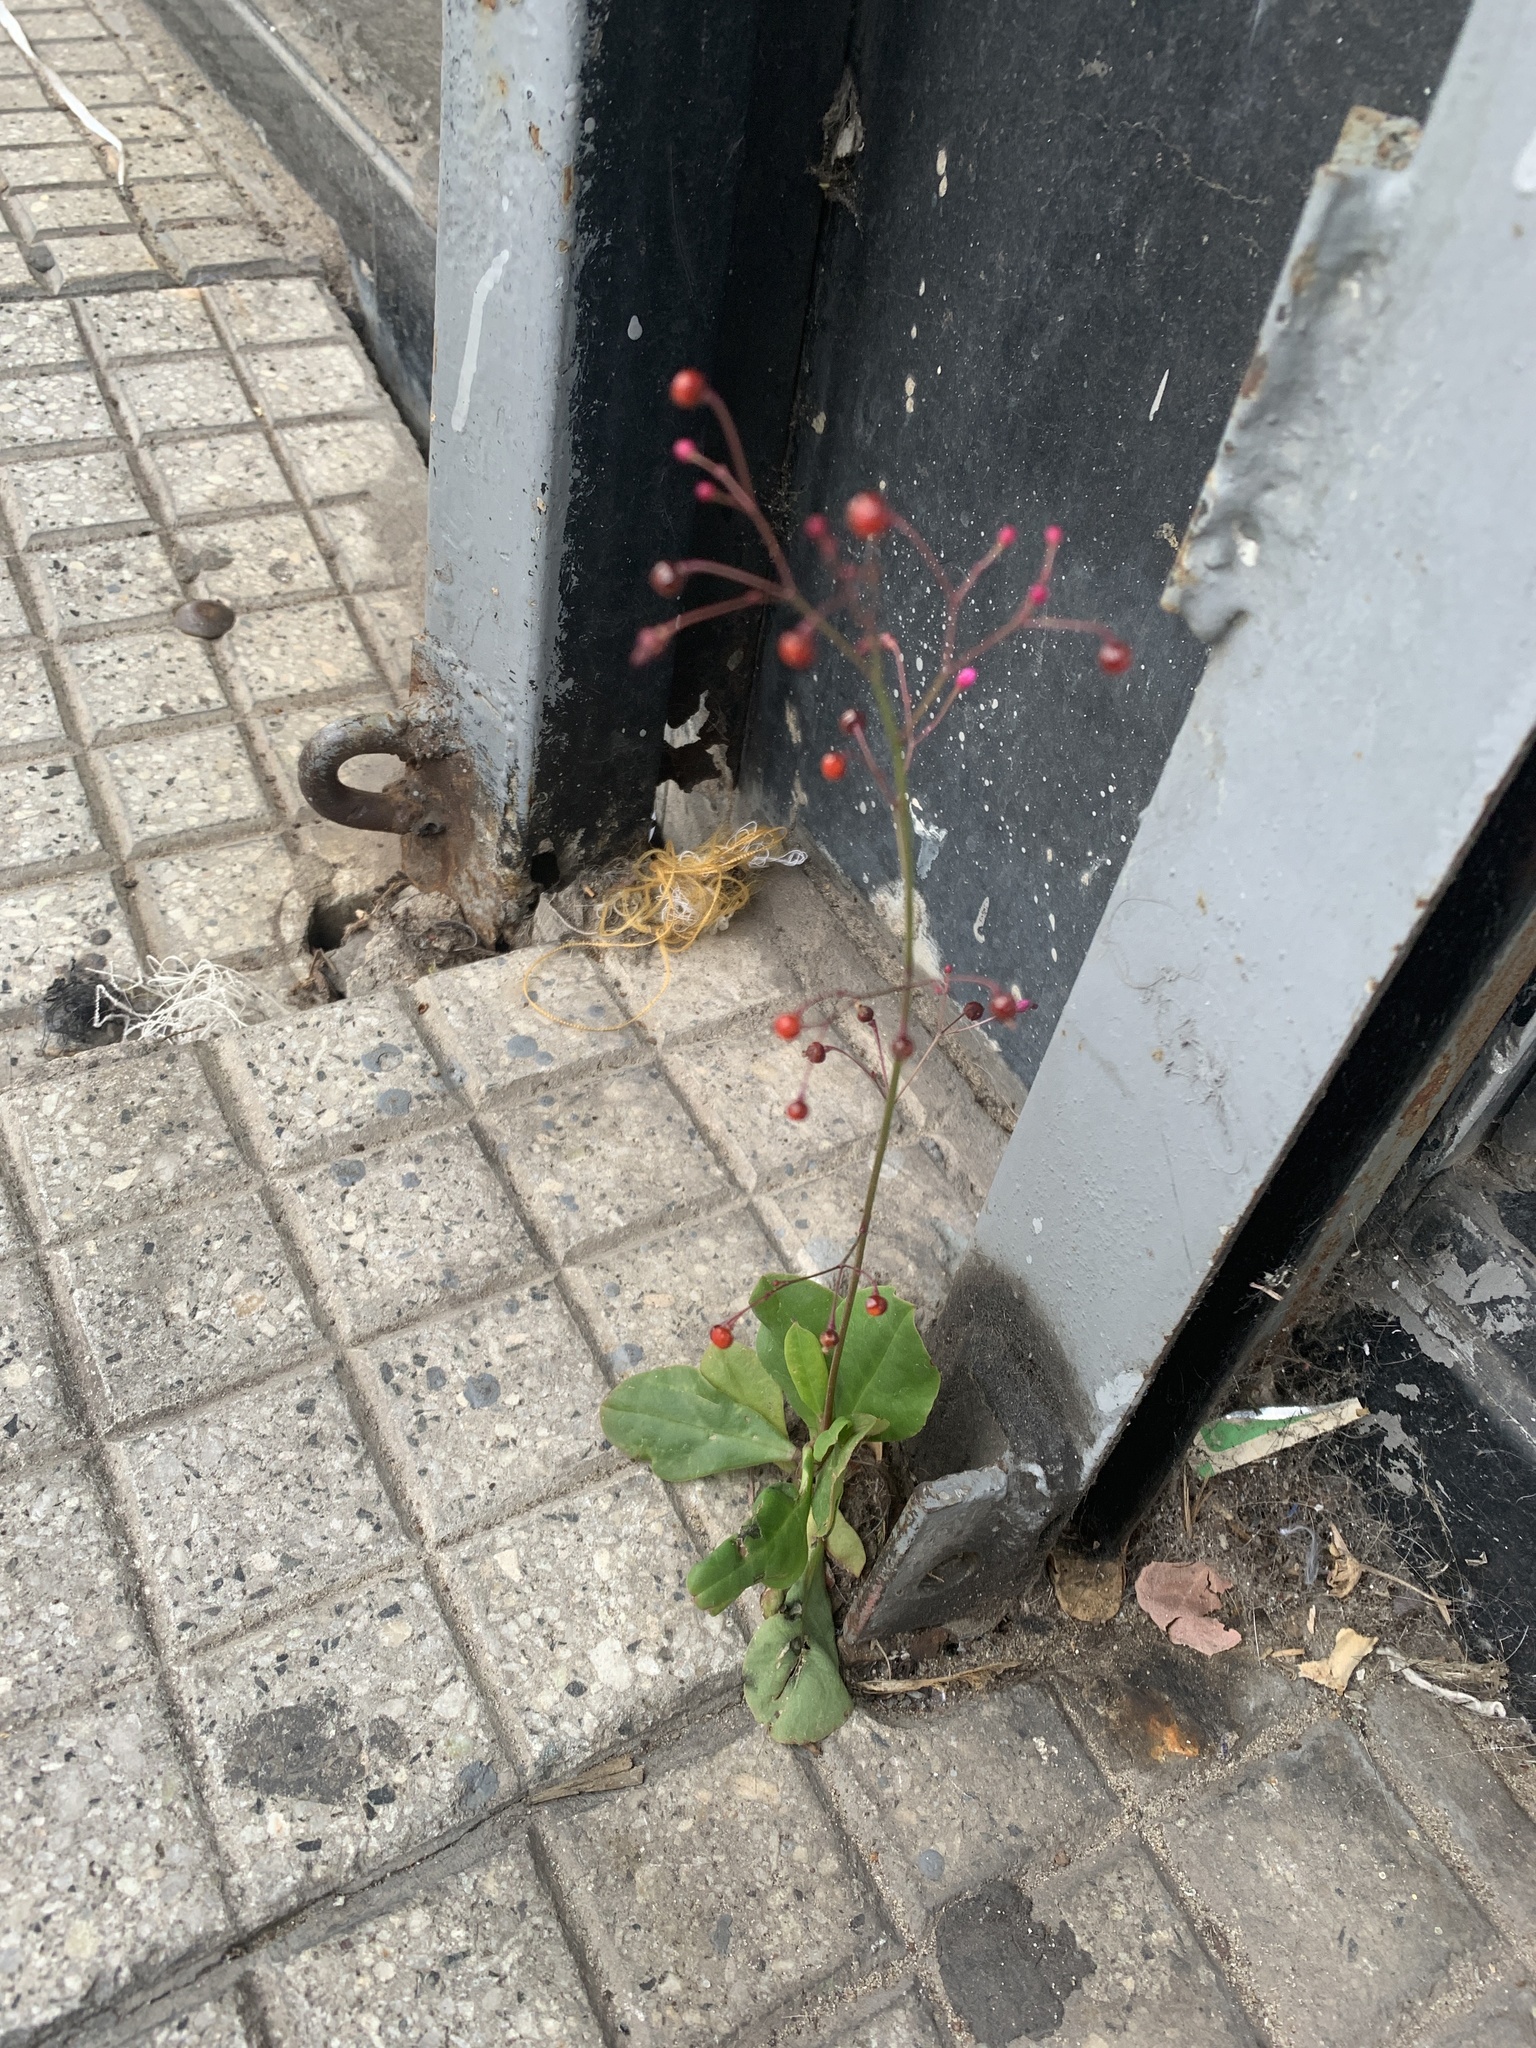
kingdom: Plantae
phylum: Tracheophyta
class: Magnoliopsida
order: Caryophyllales
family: Talinaceae
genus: Talinum
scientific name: Talinum paniculatum
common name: Jewels of opar
